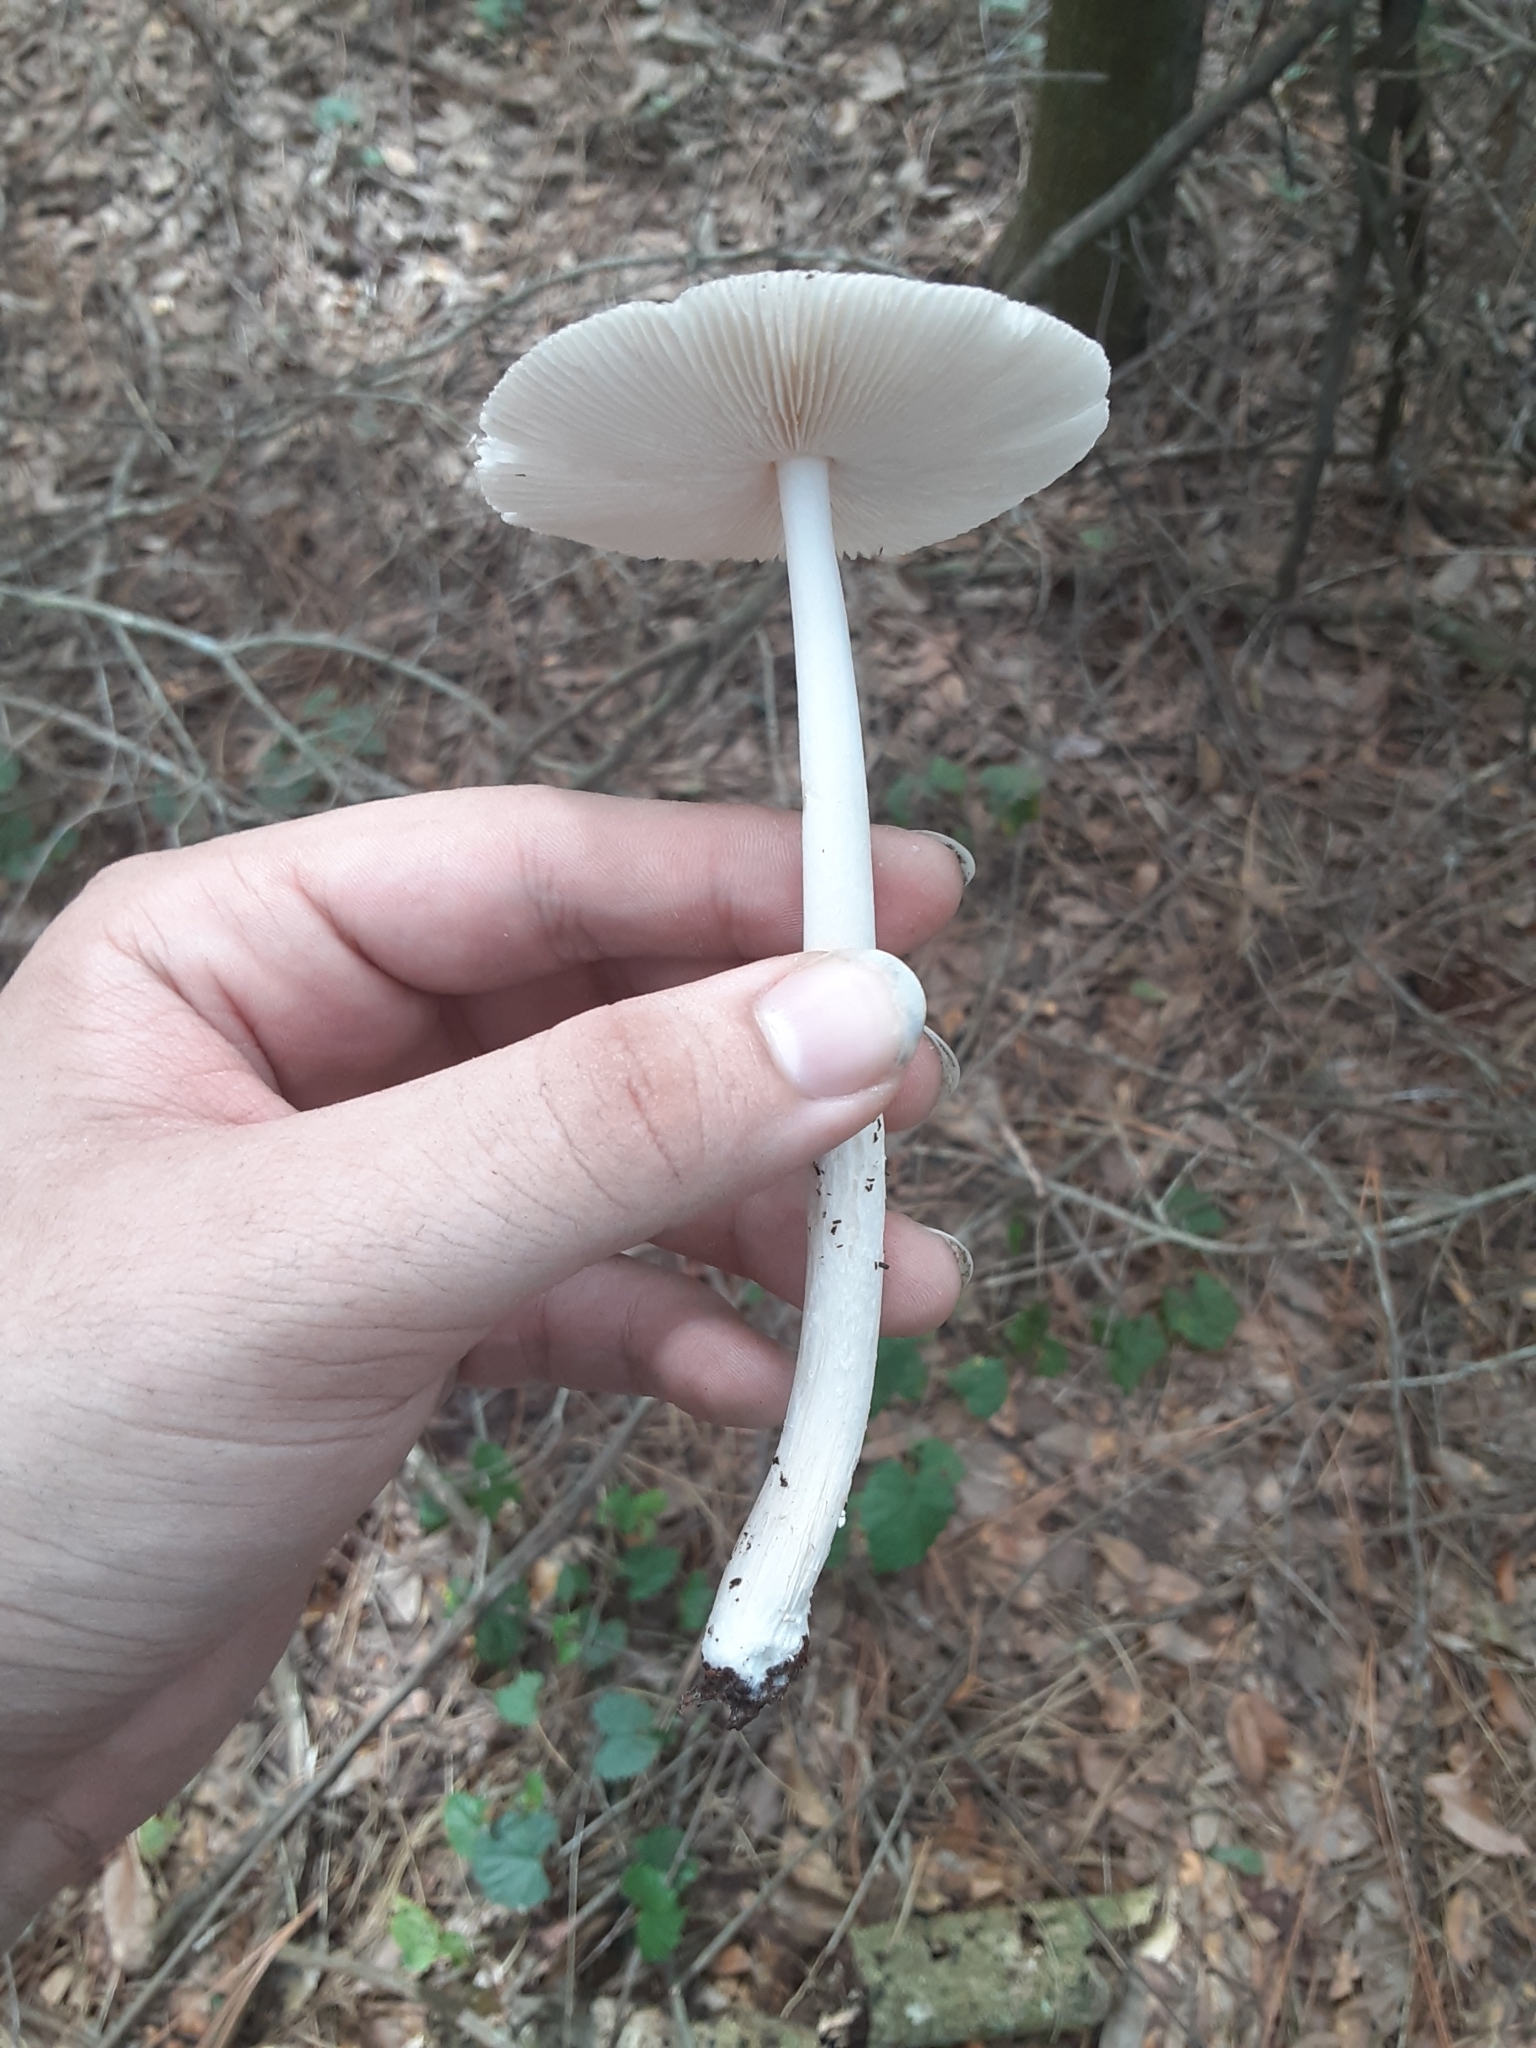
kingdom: Fungi
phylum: Basidiomycota
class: Agaricomycetes
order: Agaricales
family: Amanitaceae
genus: Amanita
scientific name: Amanita
